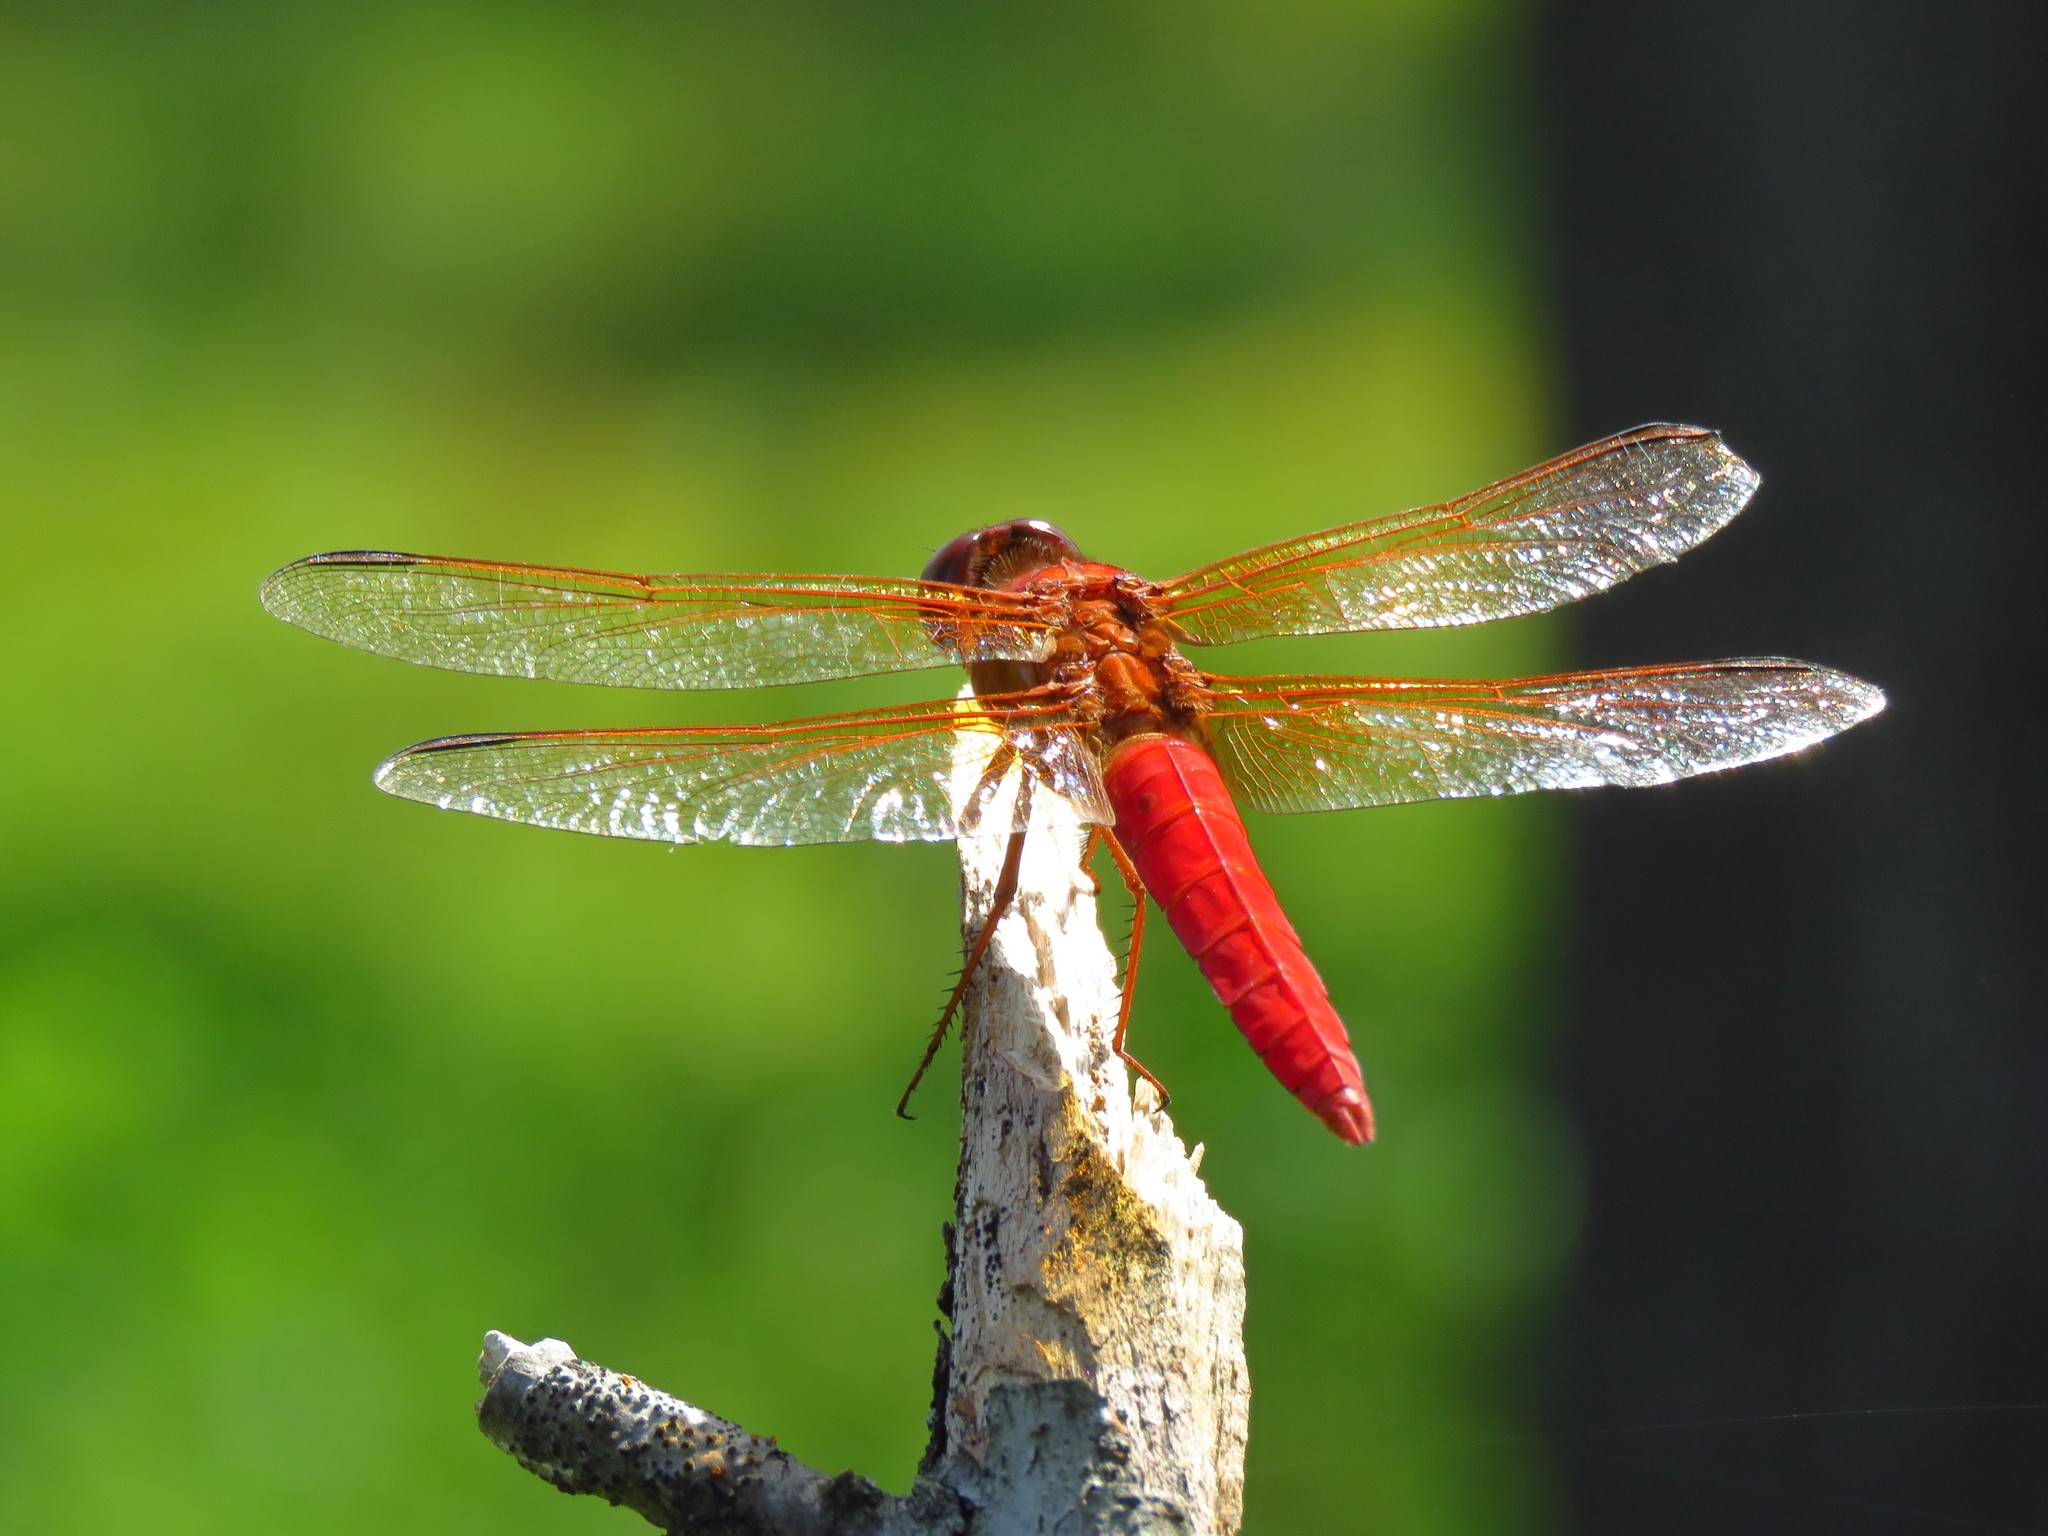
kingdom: Animalia
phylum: Arthropoda
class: Insecta
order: Odonata
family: Libellulidae
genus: Libellula
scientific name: Libellula croceipennis
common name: Neon skimmer
